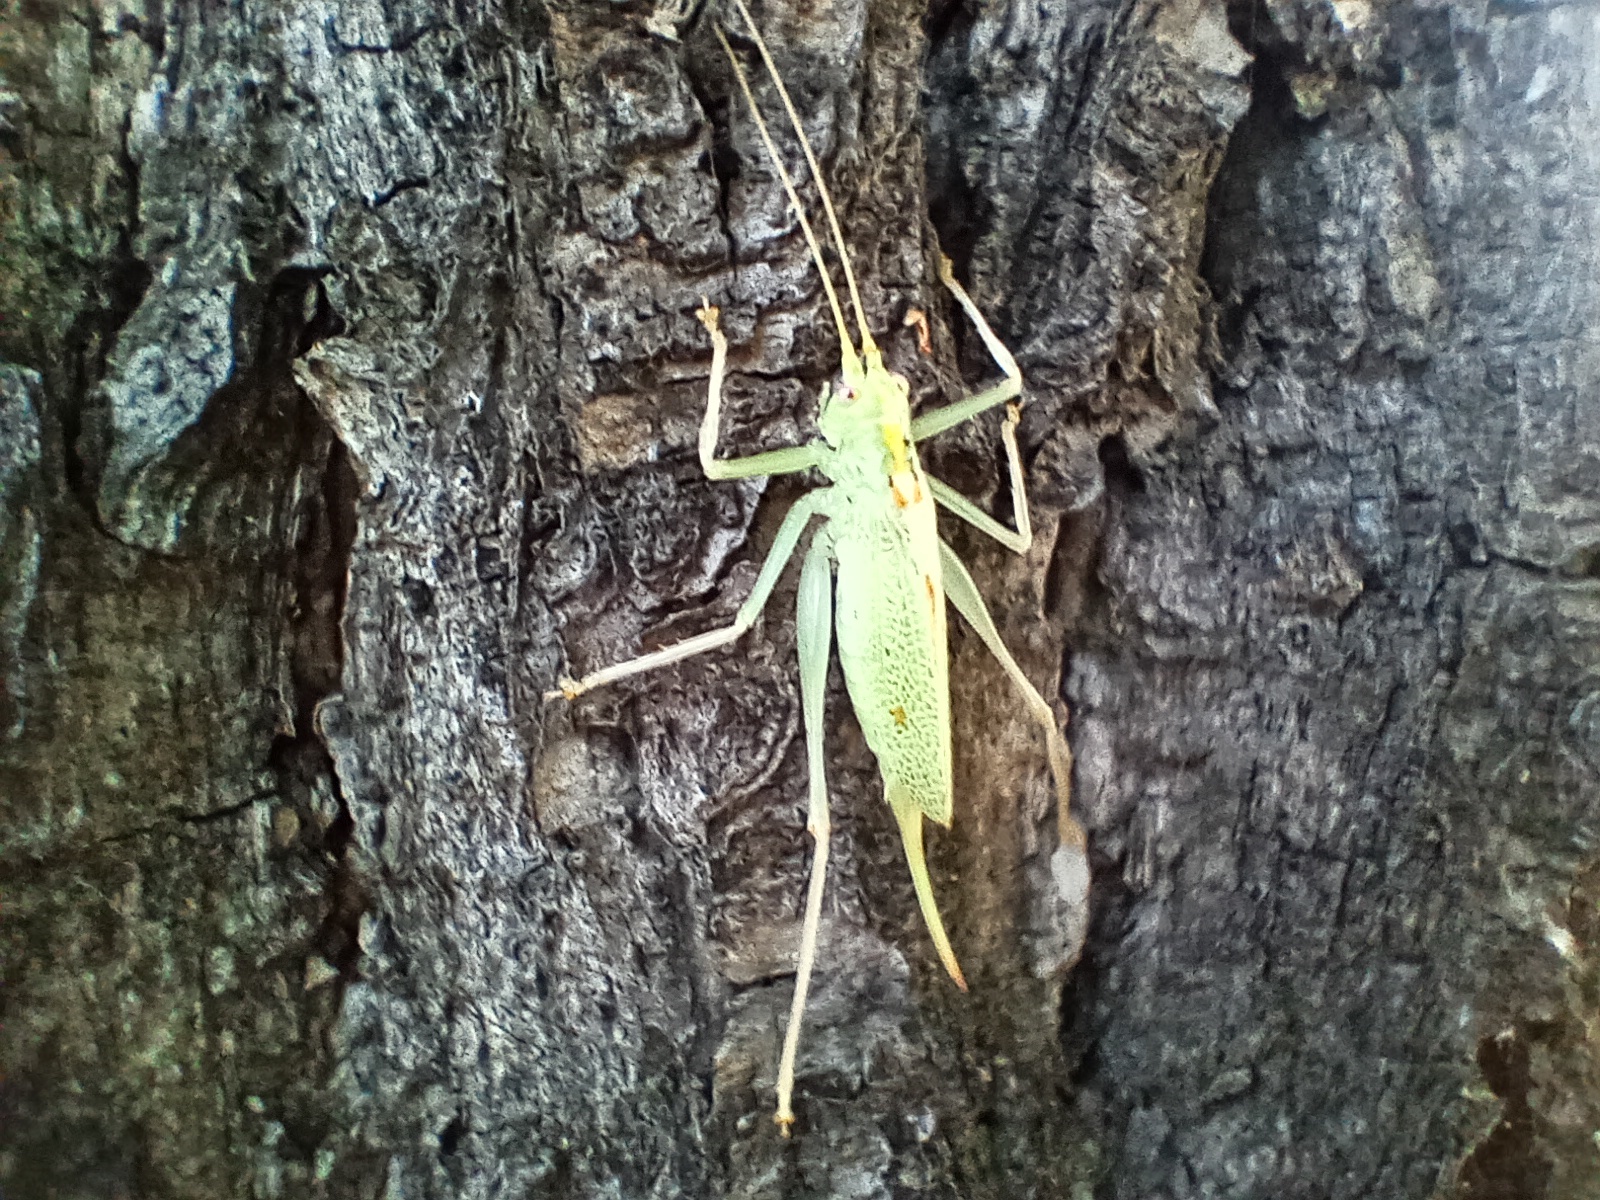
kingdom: Animalia
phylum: Arthropoda
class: Insecta
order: Orthoptera
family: Tettigoniidae
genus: Meconema
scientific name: Meconema thalassinum
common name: Oak bush-cricket
